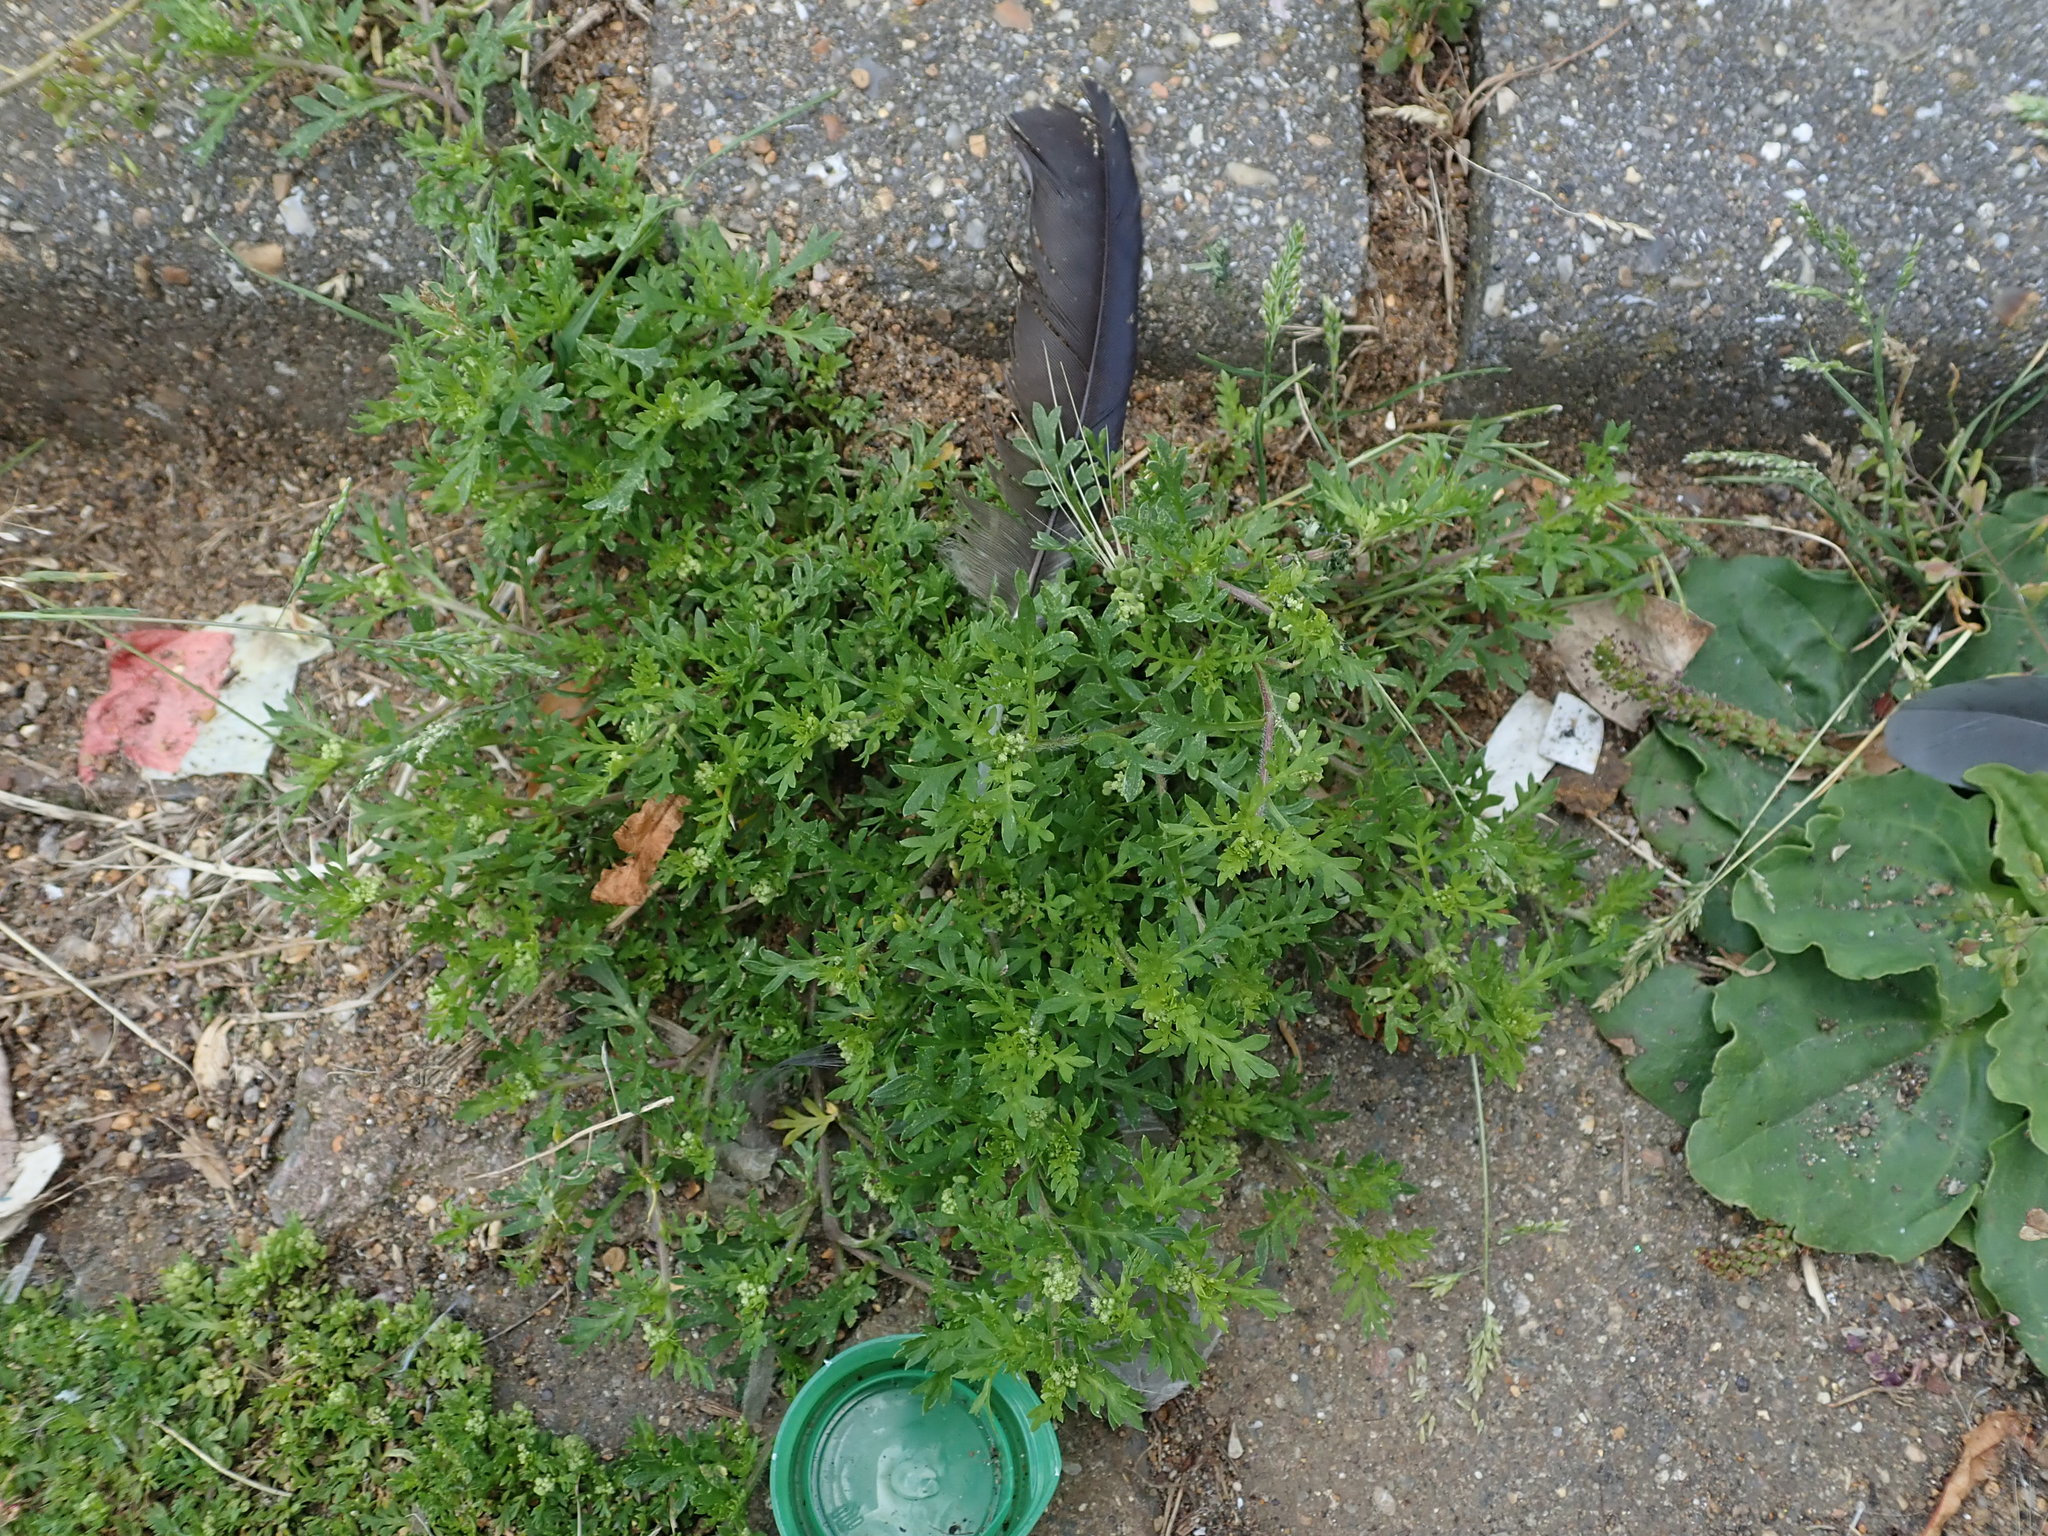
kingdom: Plantae
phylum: Tracheophyta
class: Magnoliopsida
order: Brassicales
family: Brassicaceae
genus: Lepidium
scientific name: Lepidium didymum
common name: Lesser swinecress
